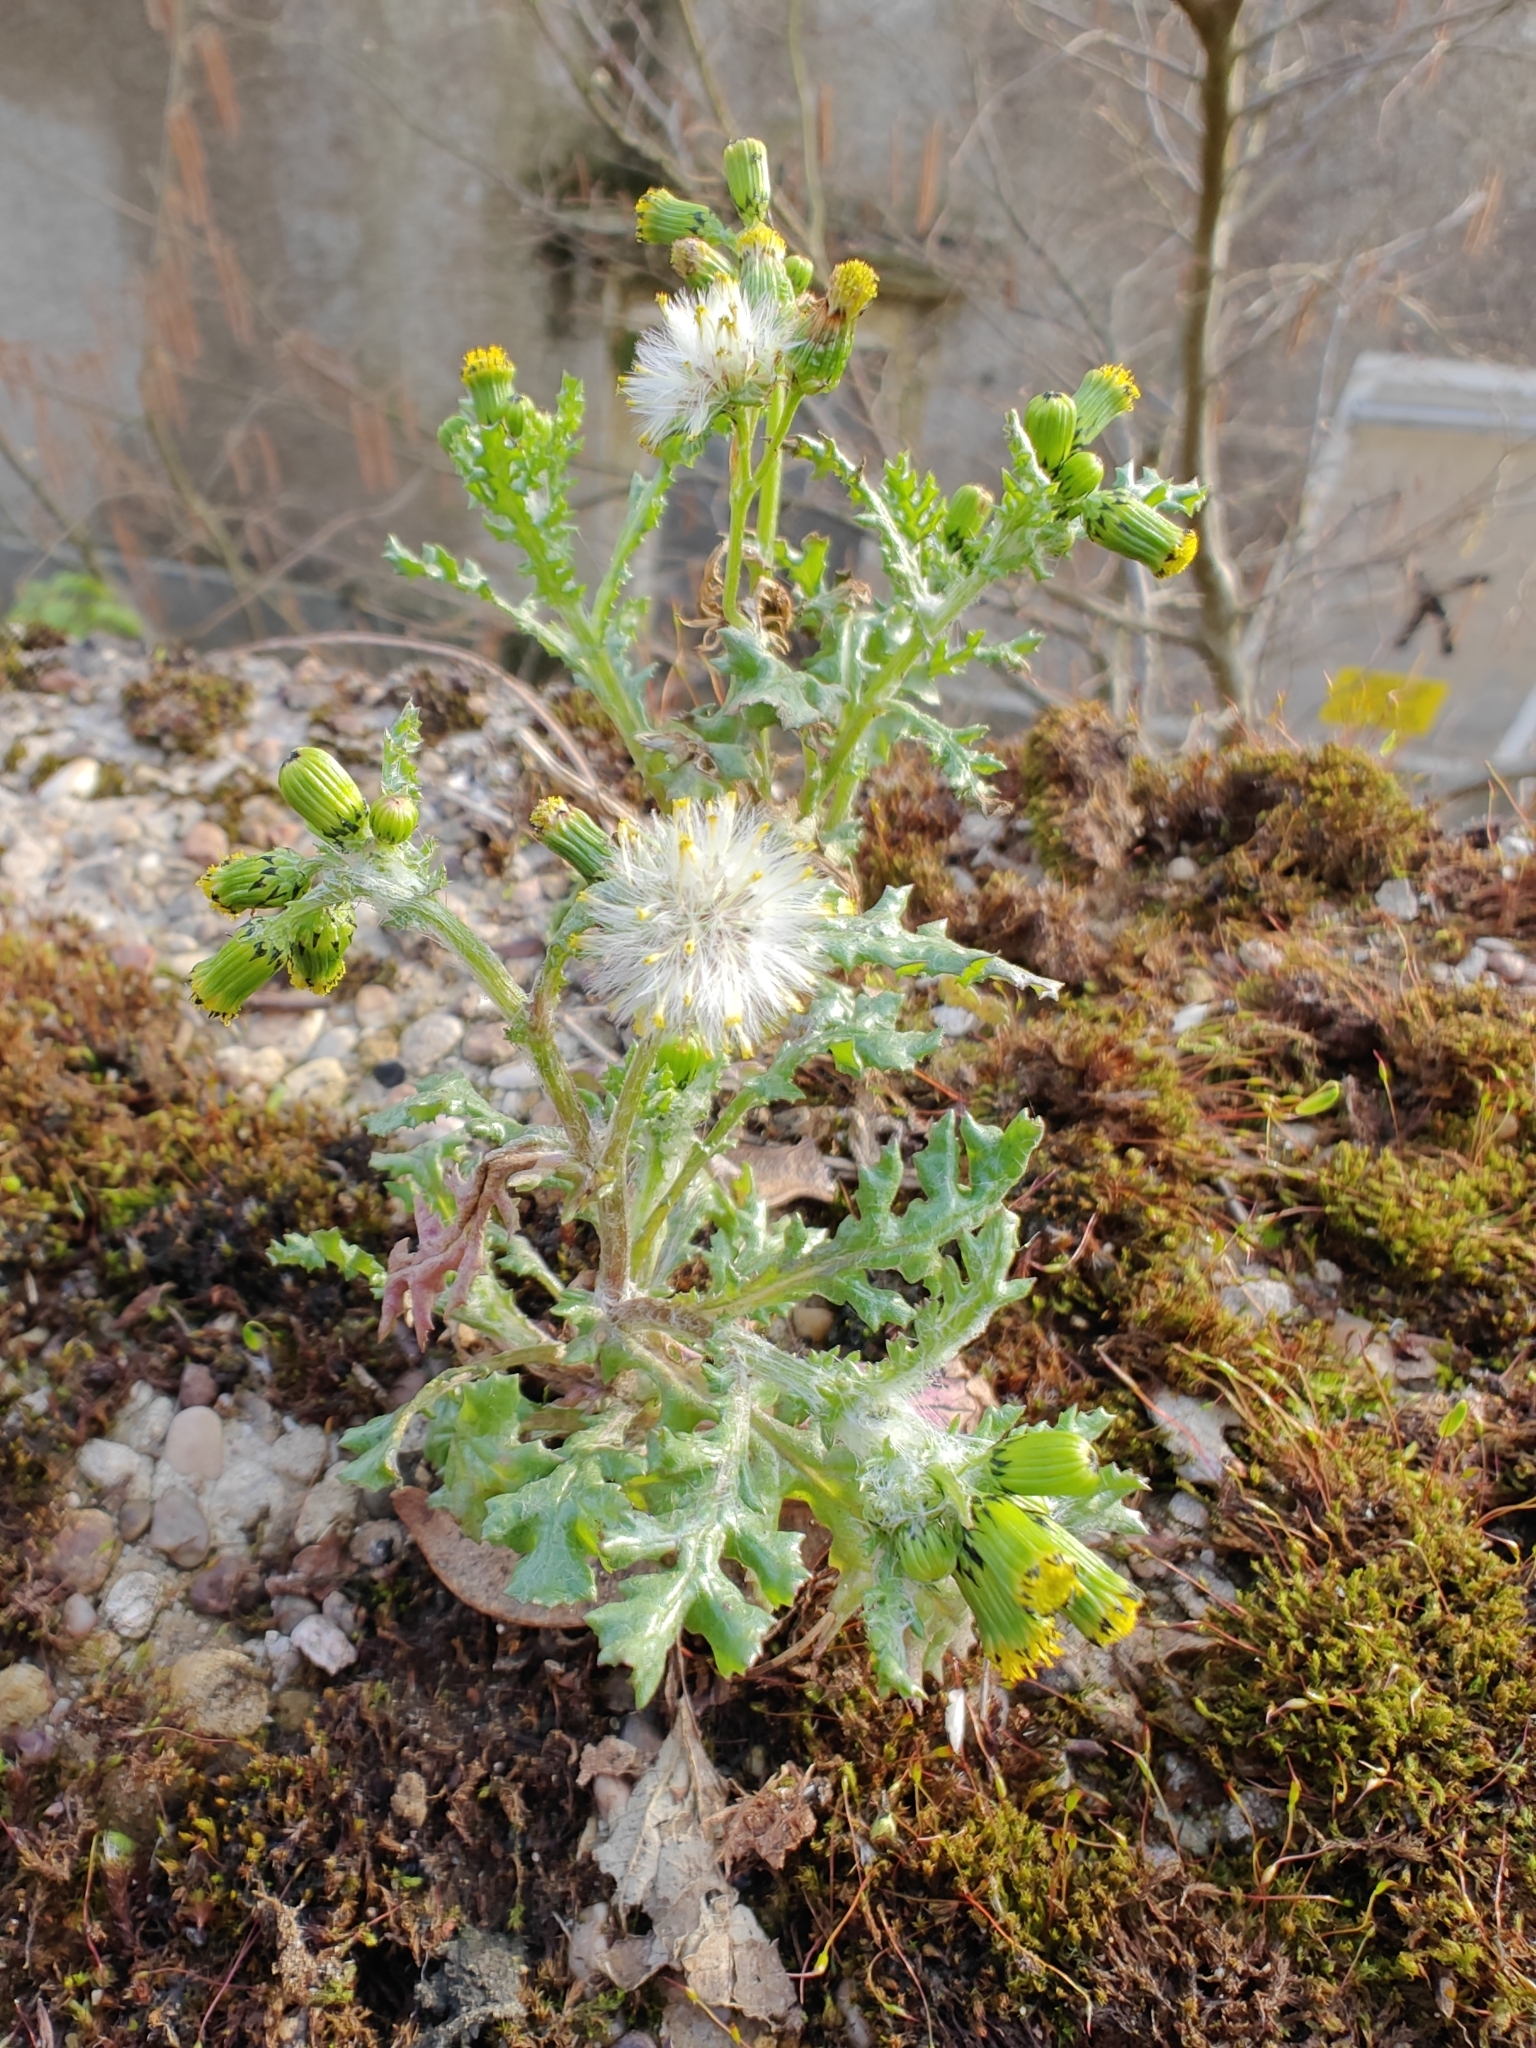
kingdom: Plantae
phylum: Tracheophyta
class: Magnoliopsida
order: Asterales
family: Asteraceae
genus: Senecio
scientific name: Senecio vulgaris
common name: Old-man-in-the-spring
